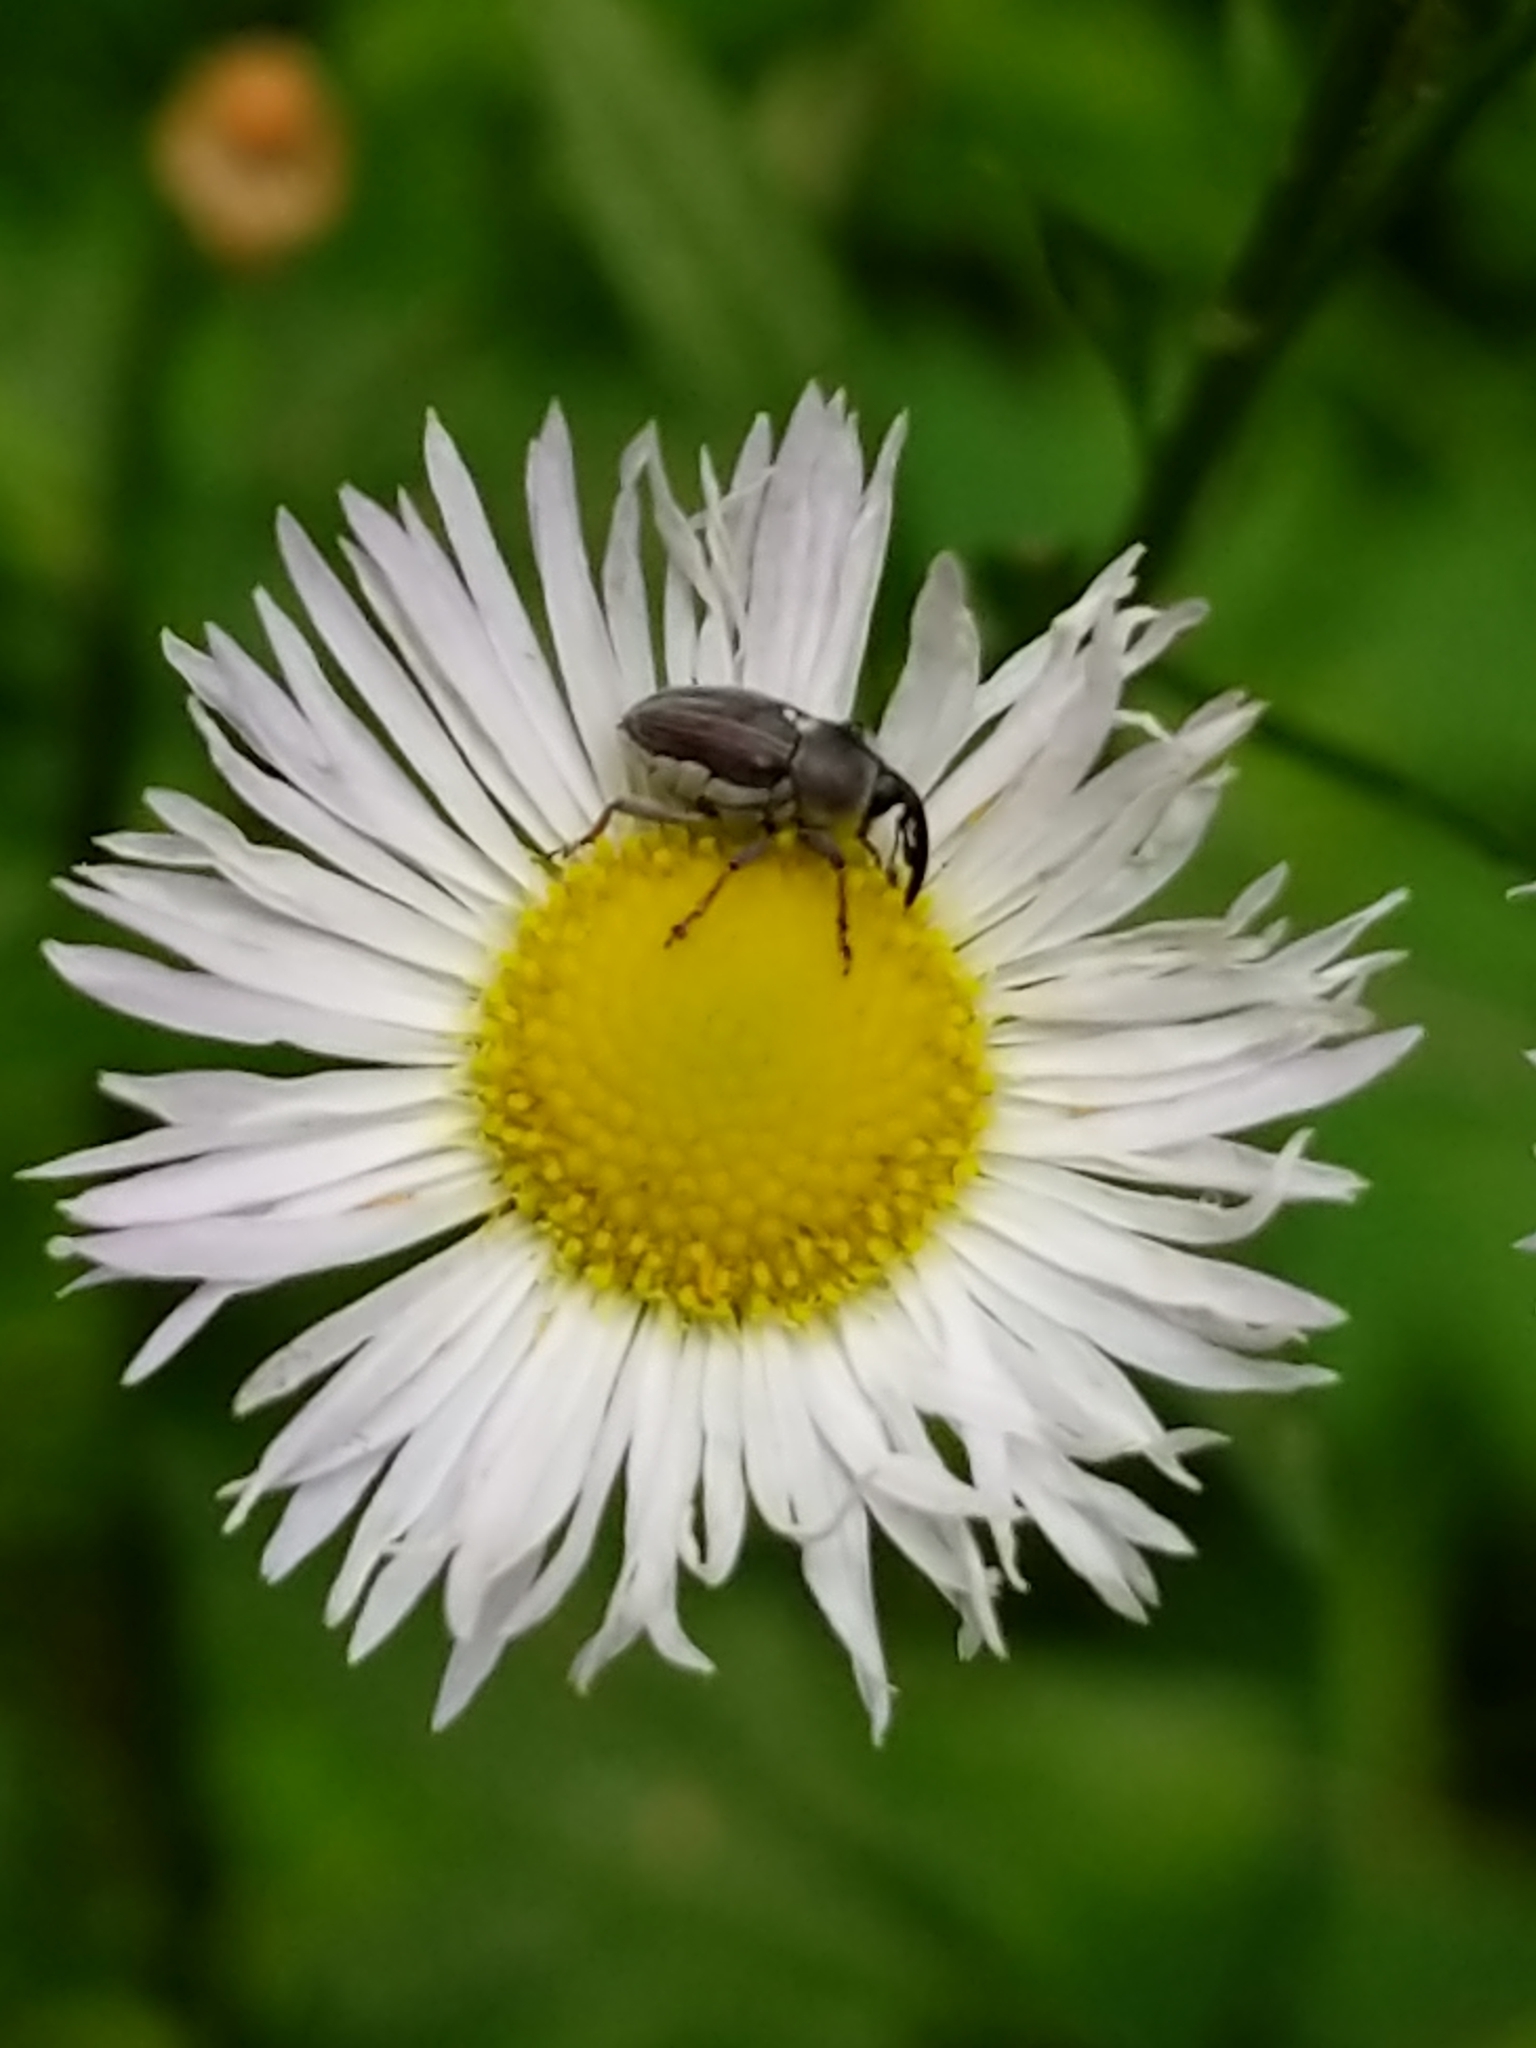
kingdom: Animalia
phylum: Arthropoda
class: Insecta
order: Coleoptera
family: Curculionidae
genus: Odontocorynus
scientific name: Odontocorynus umbellae
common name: Daisy flower weevil
